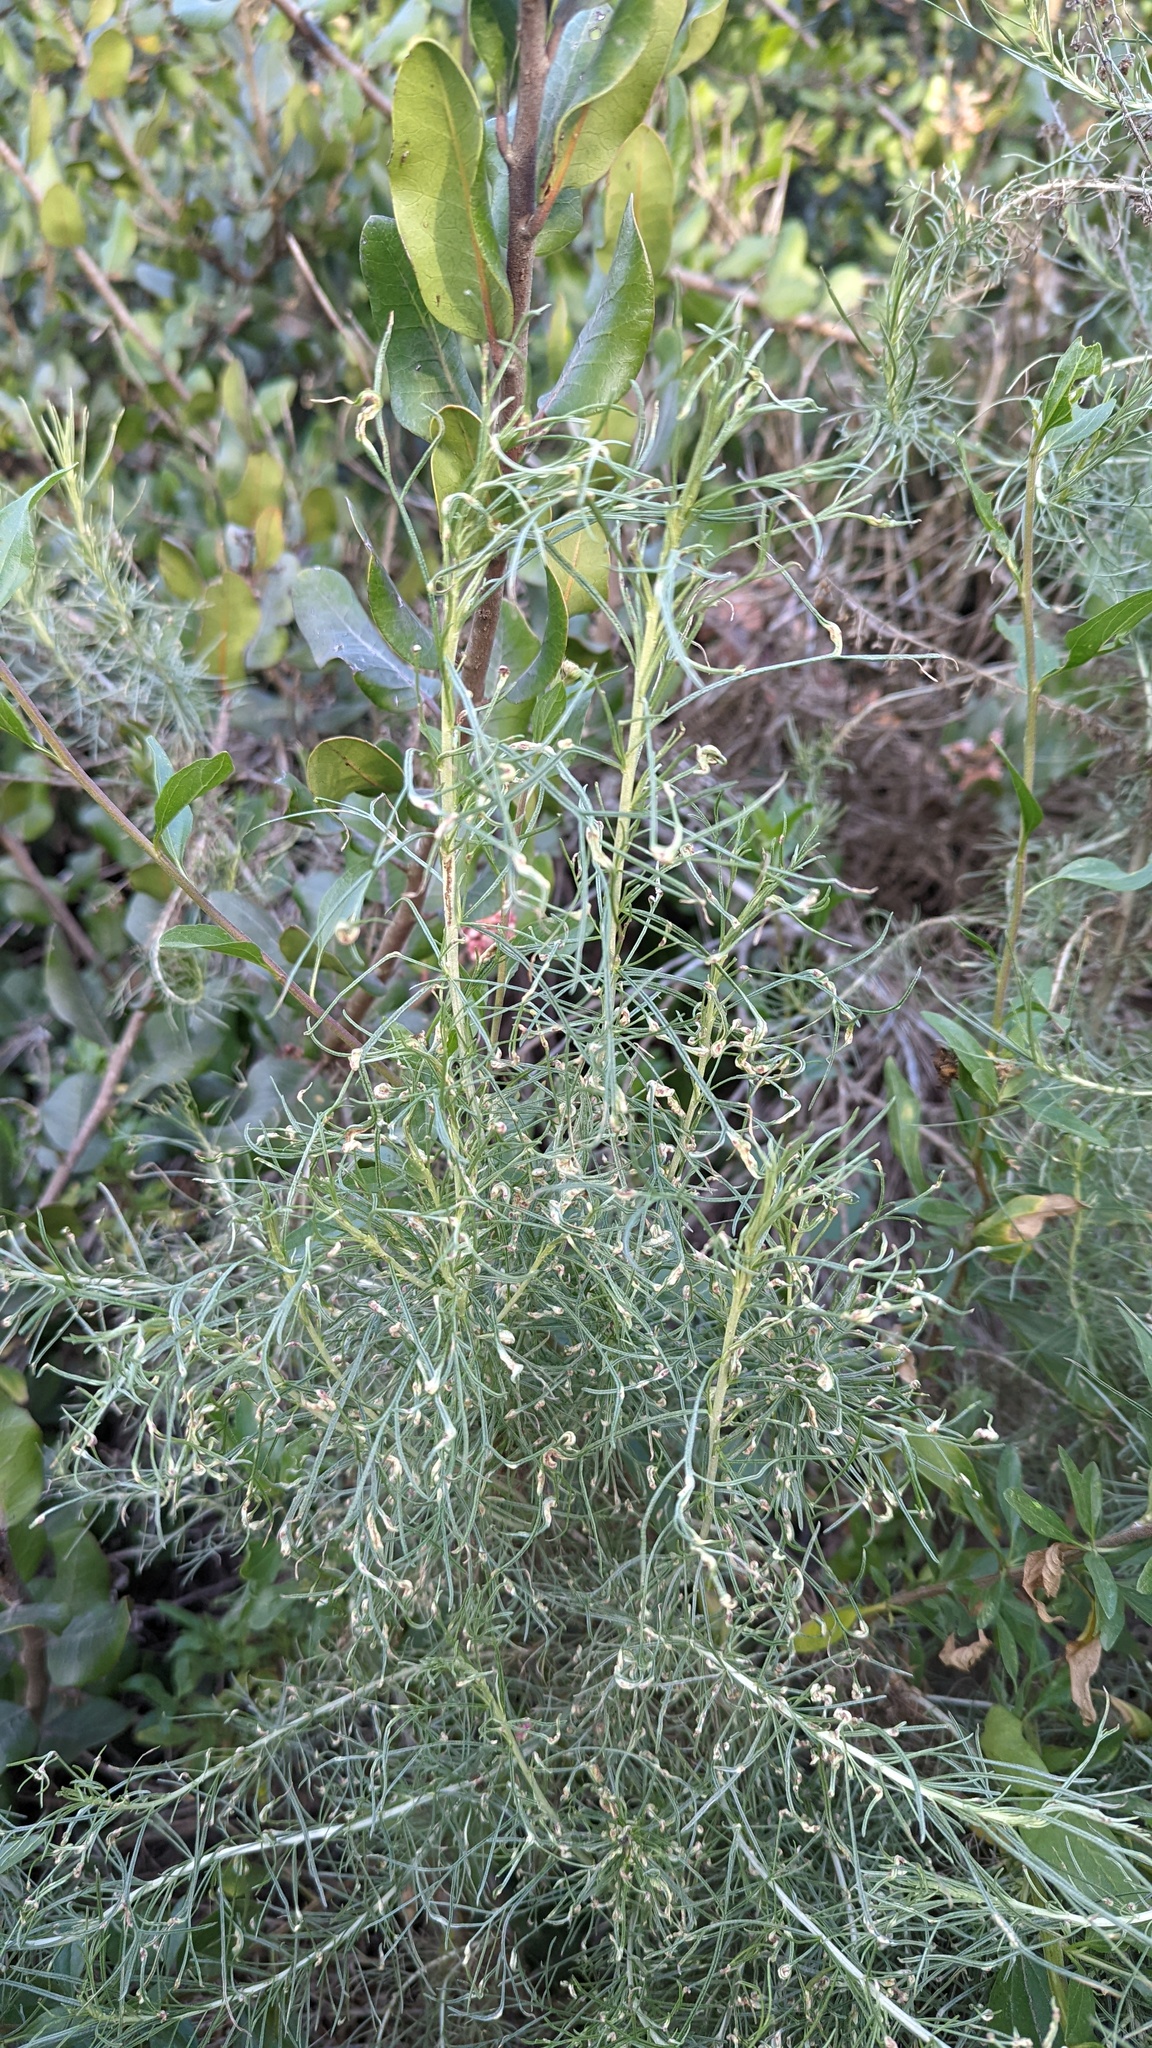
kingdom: Animalia
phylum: Arthropoda
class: Arachnida
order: Trombidiformes
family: Eriophyidae
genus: Aceria
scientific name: Aceria
